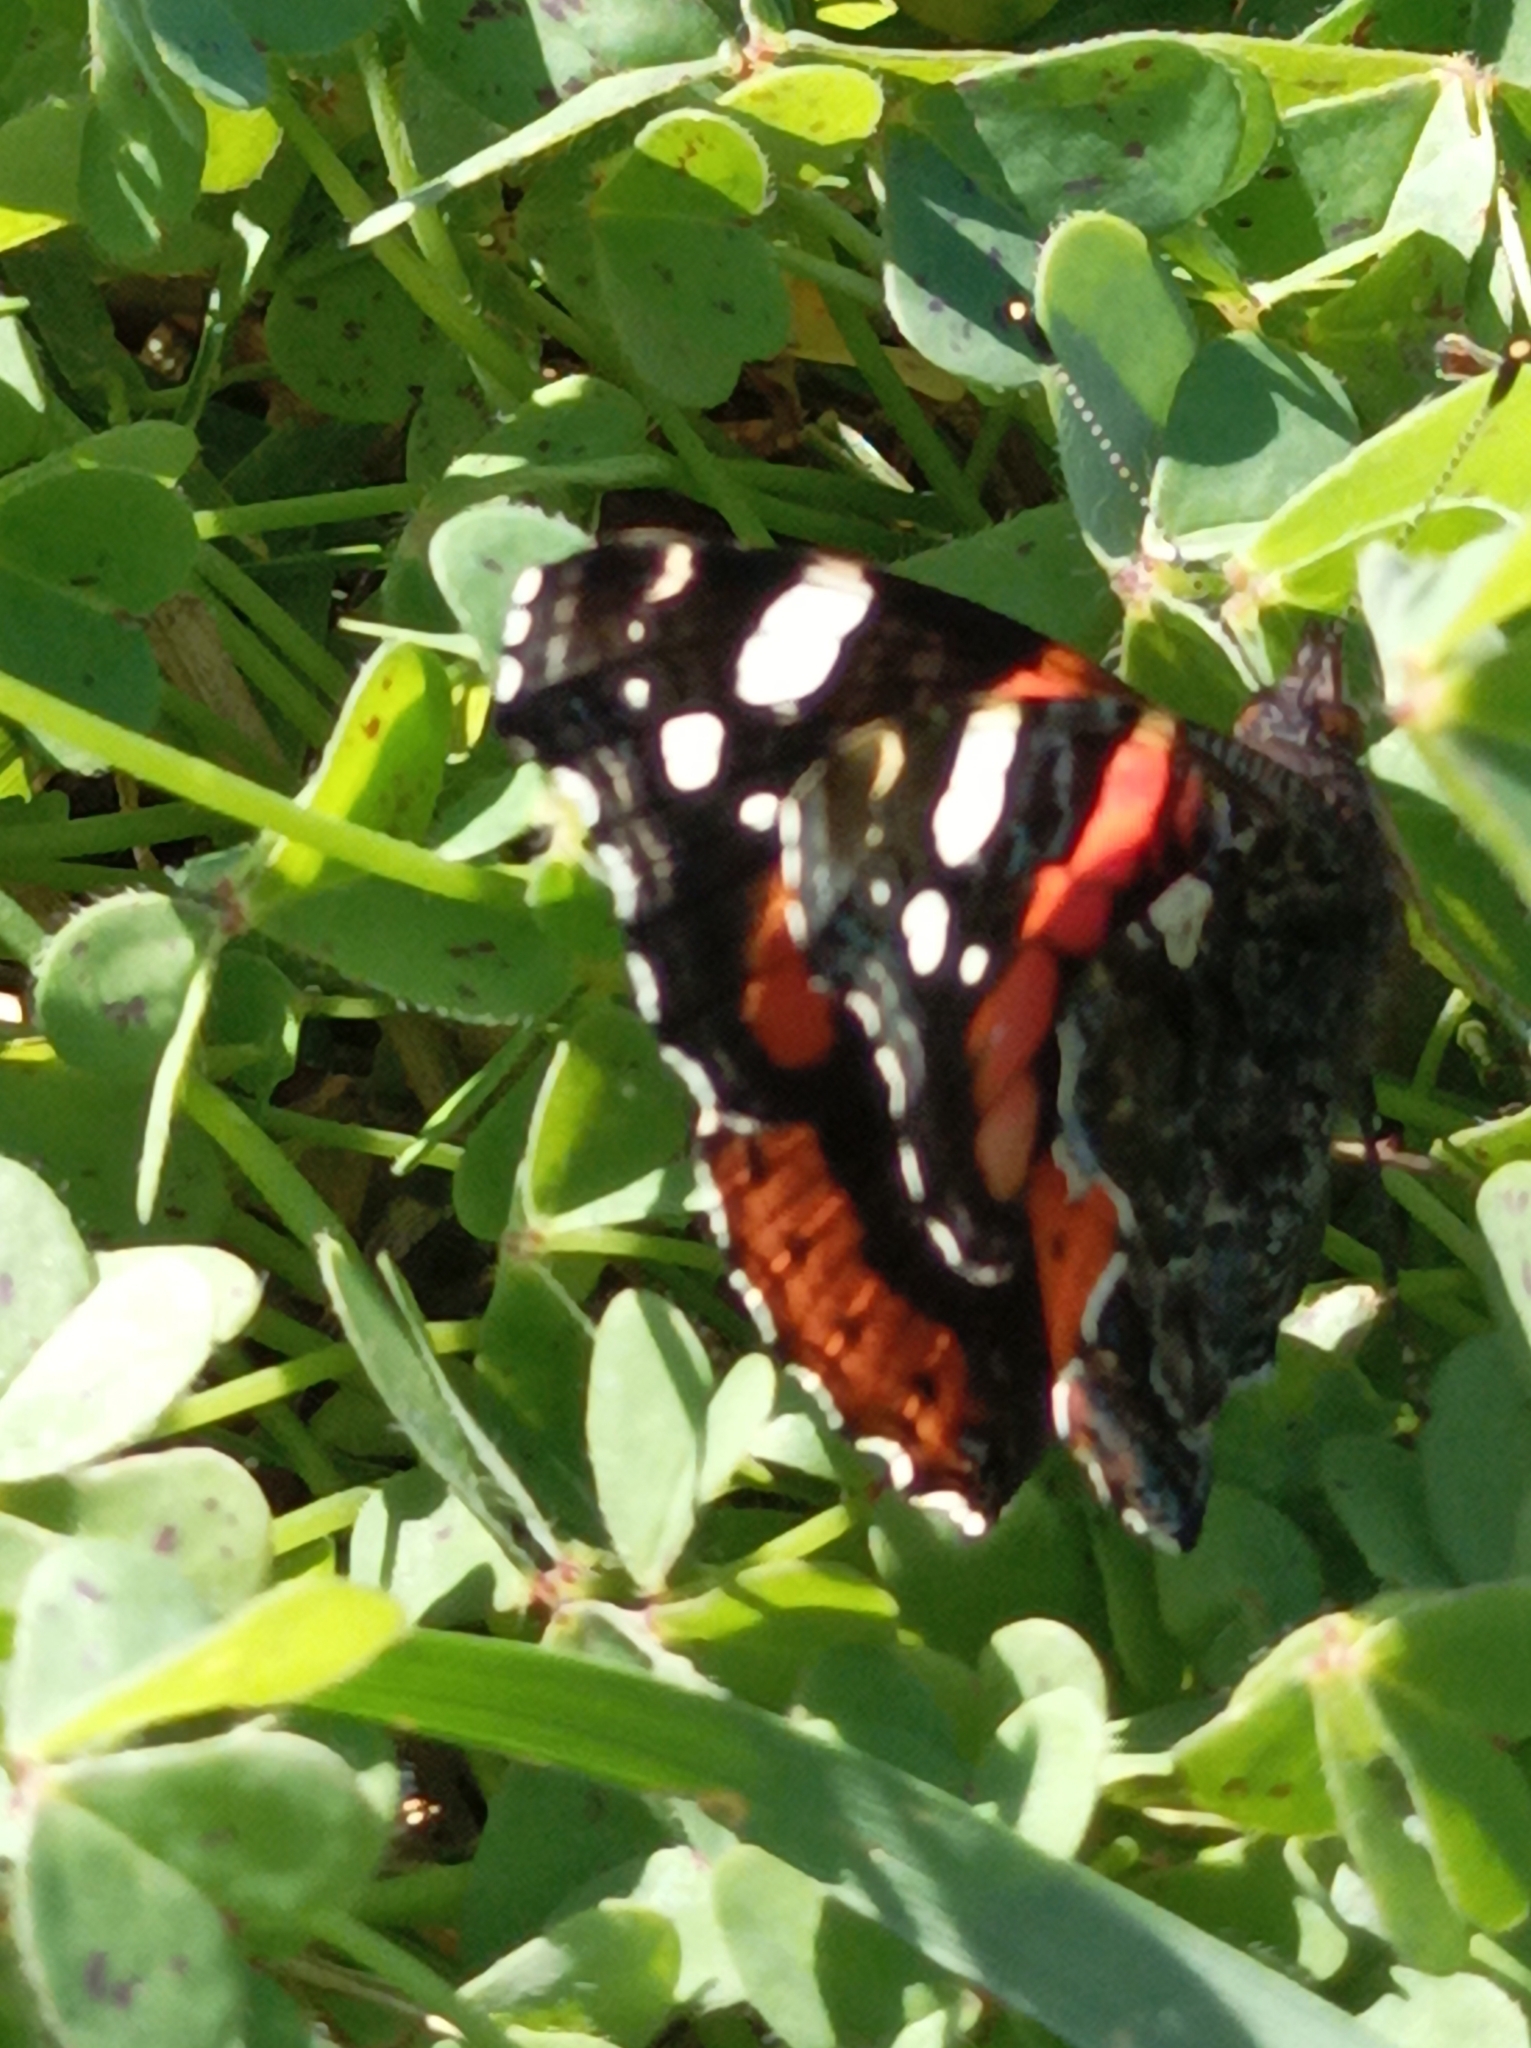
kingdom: Animalia
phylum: Arthropoda
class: Insecta
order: Lepidoptera
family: Nymphalidae
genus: Vanessa
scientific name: Vanessa atalanta
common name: Red admiral
